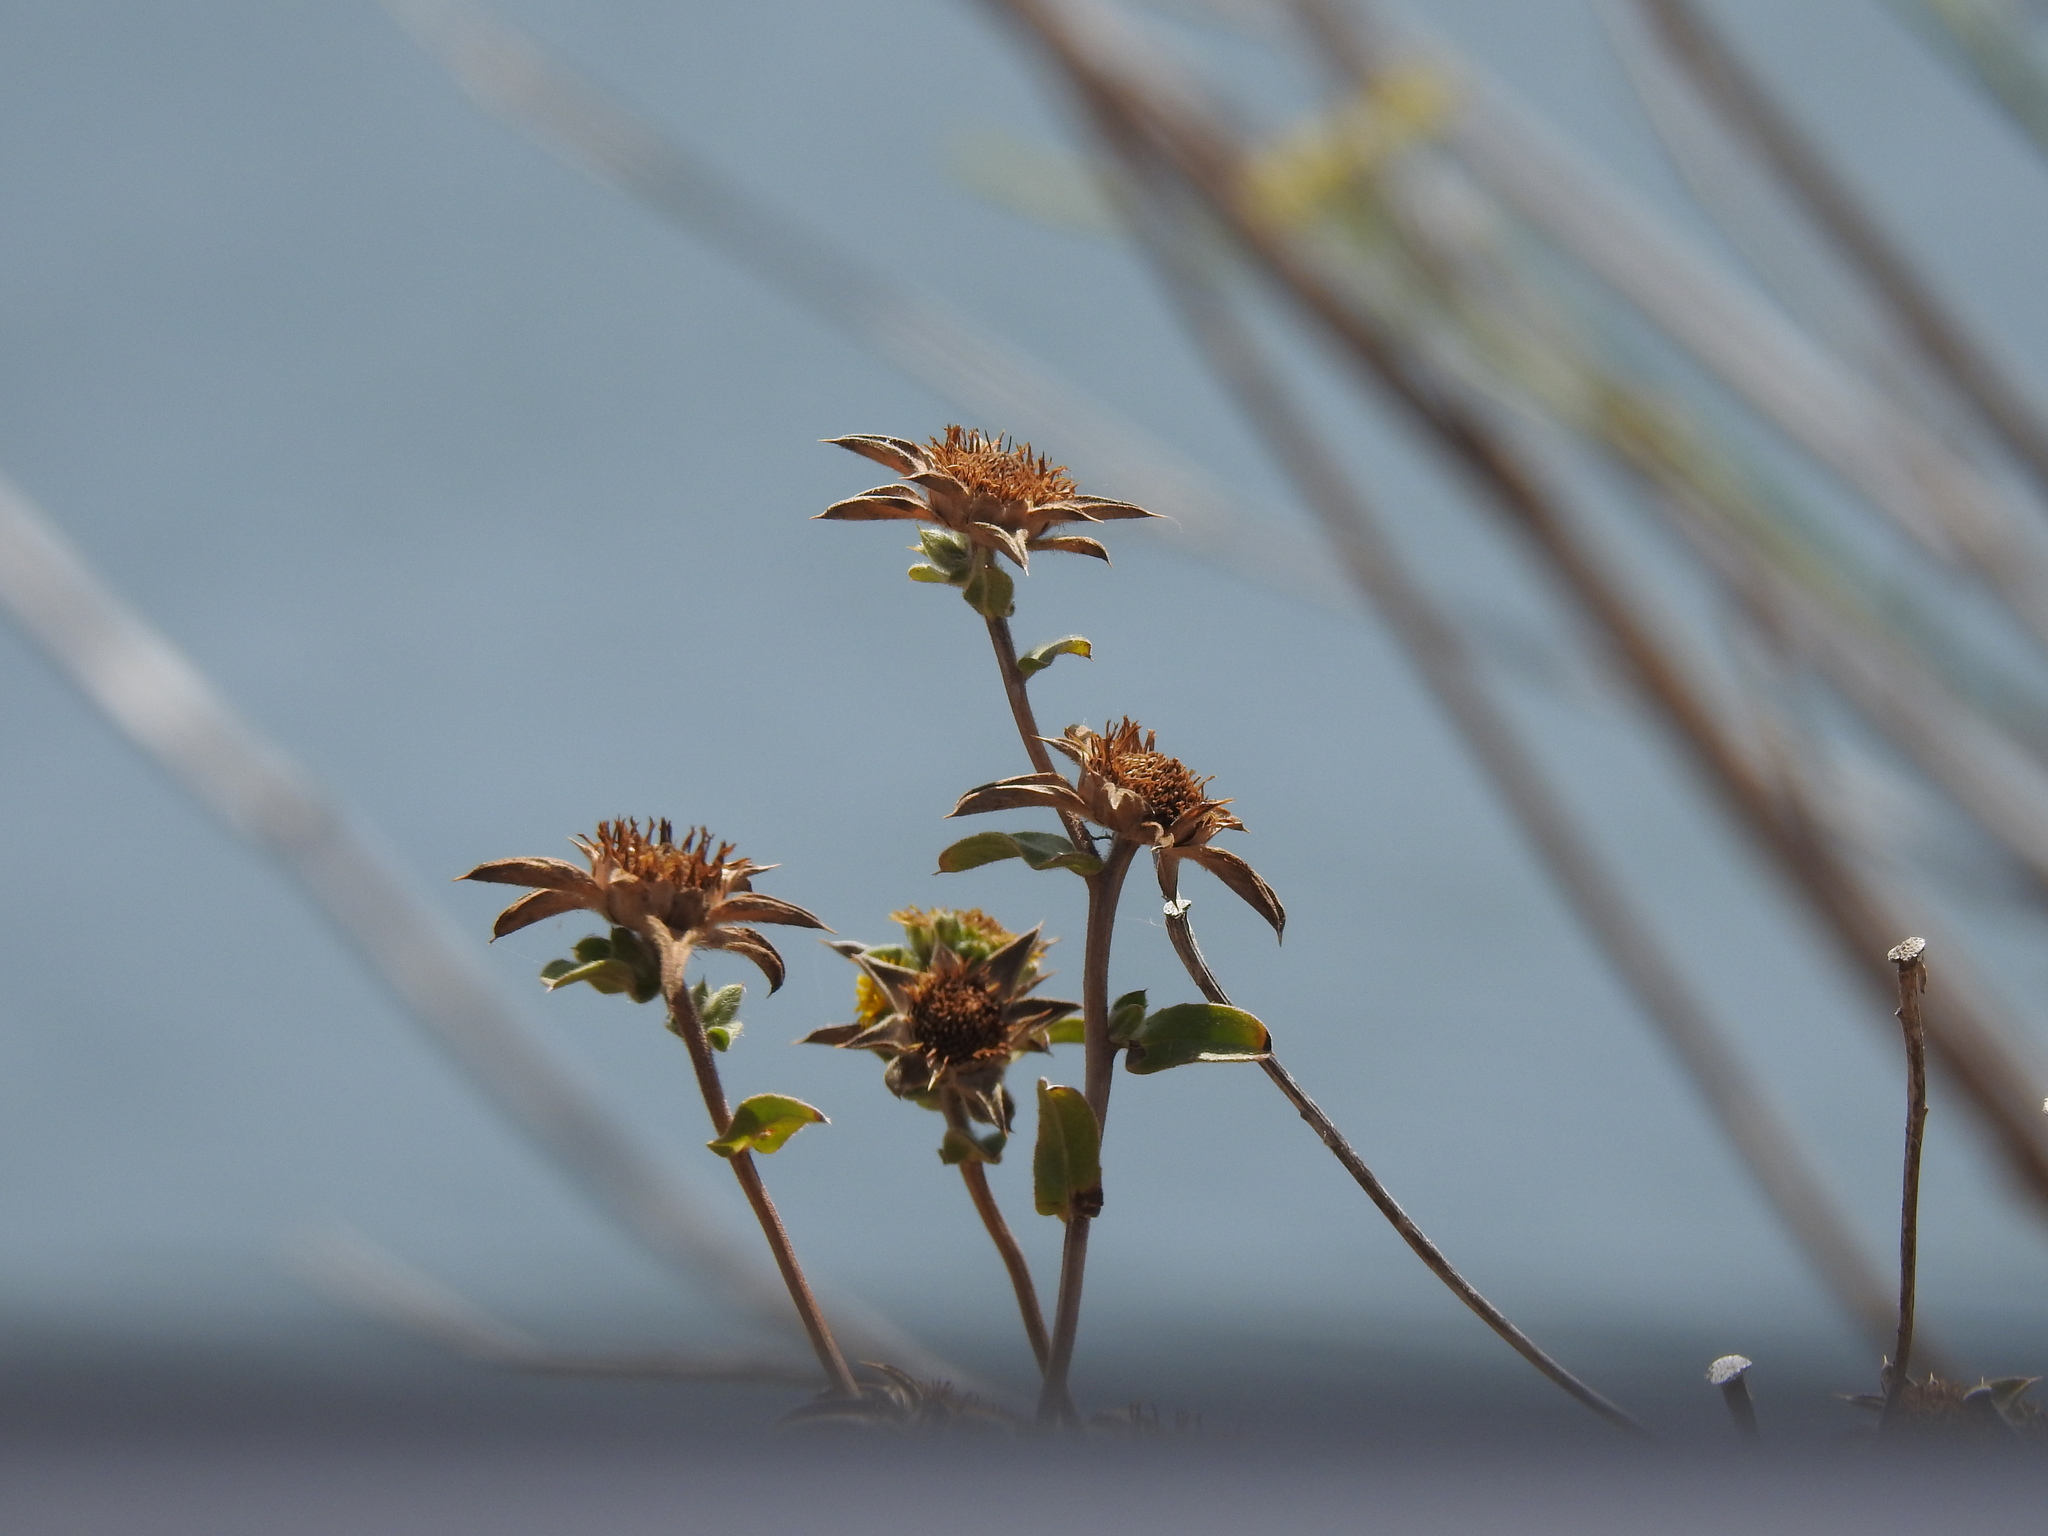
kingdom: Plantae
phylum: Tracheophyta
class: Magnoliopsida
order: Asterales
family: Asteraceae
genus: Pallenis
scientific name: Pallenis spinosa
